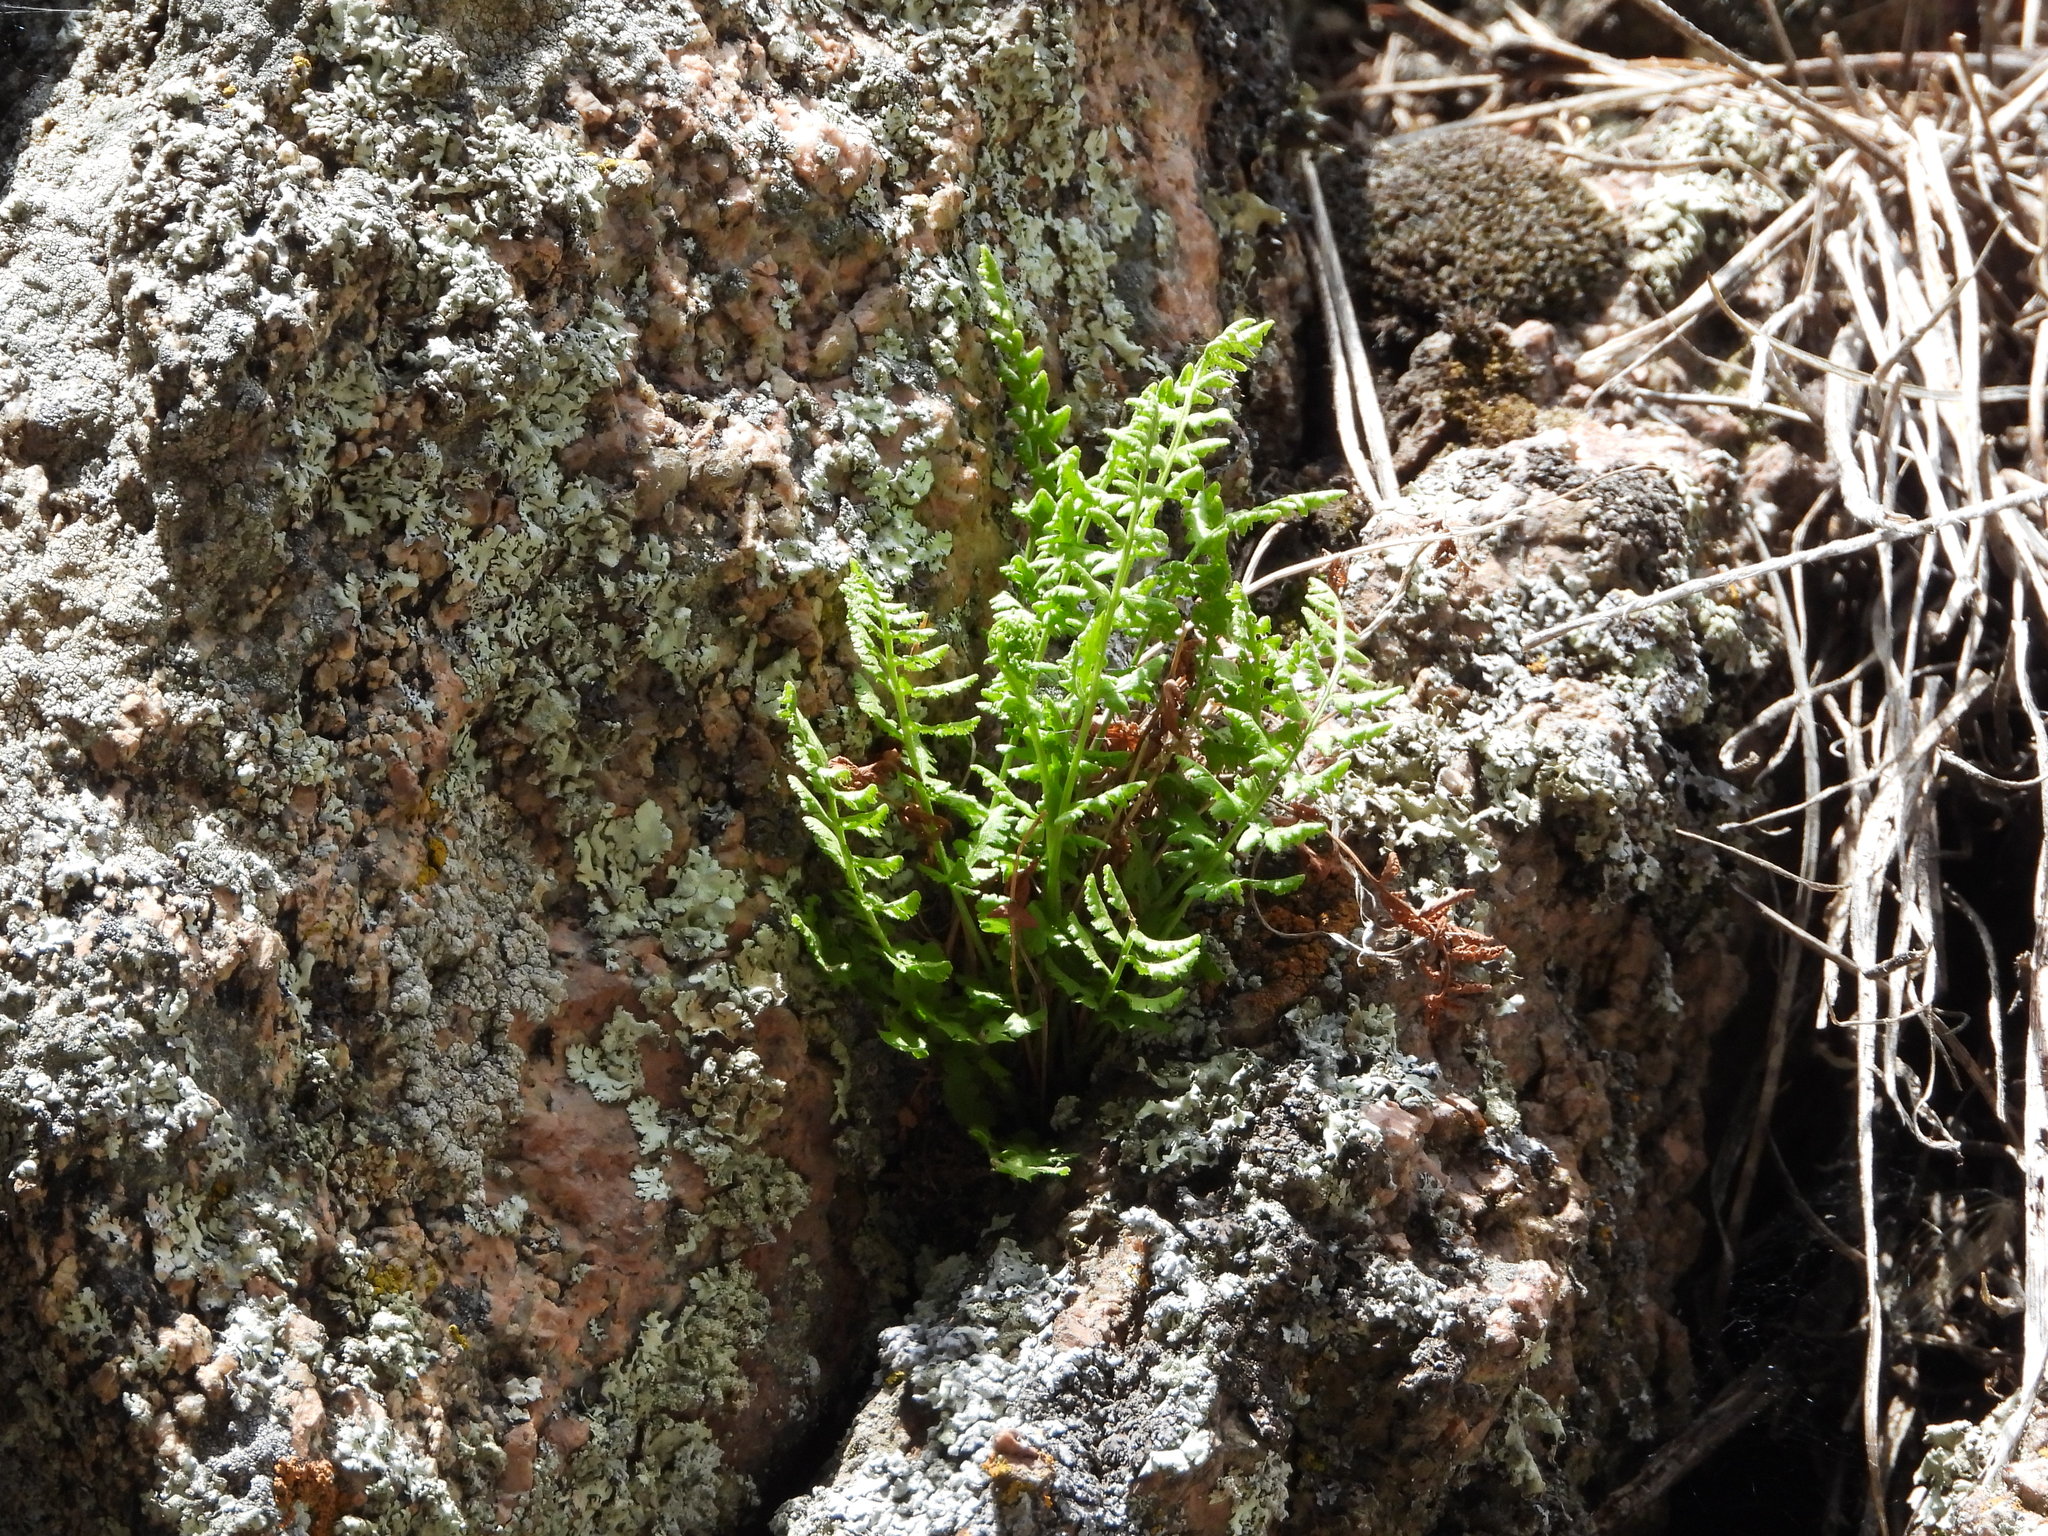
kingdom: Plantae
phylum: Tracheophyta
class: Polypodiopsida
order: Polypodiales
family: Woodsiaceae
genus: Physematium
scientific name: Physematium oreganum
